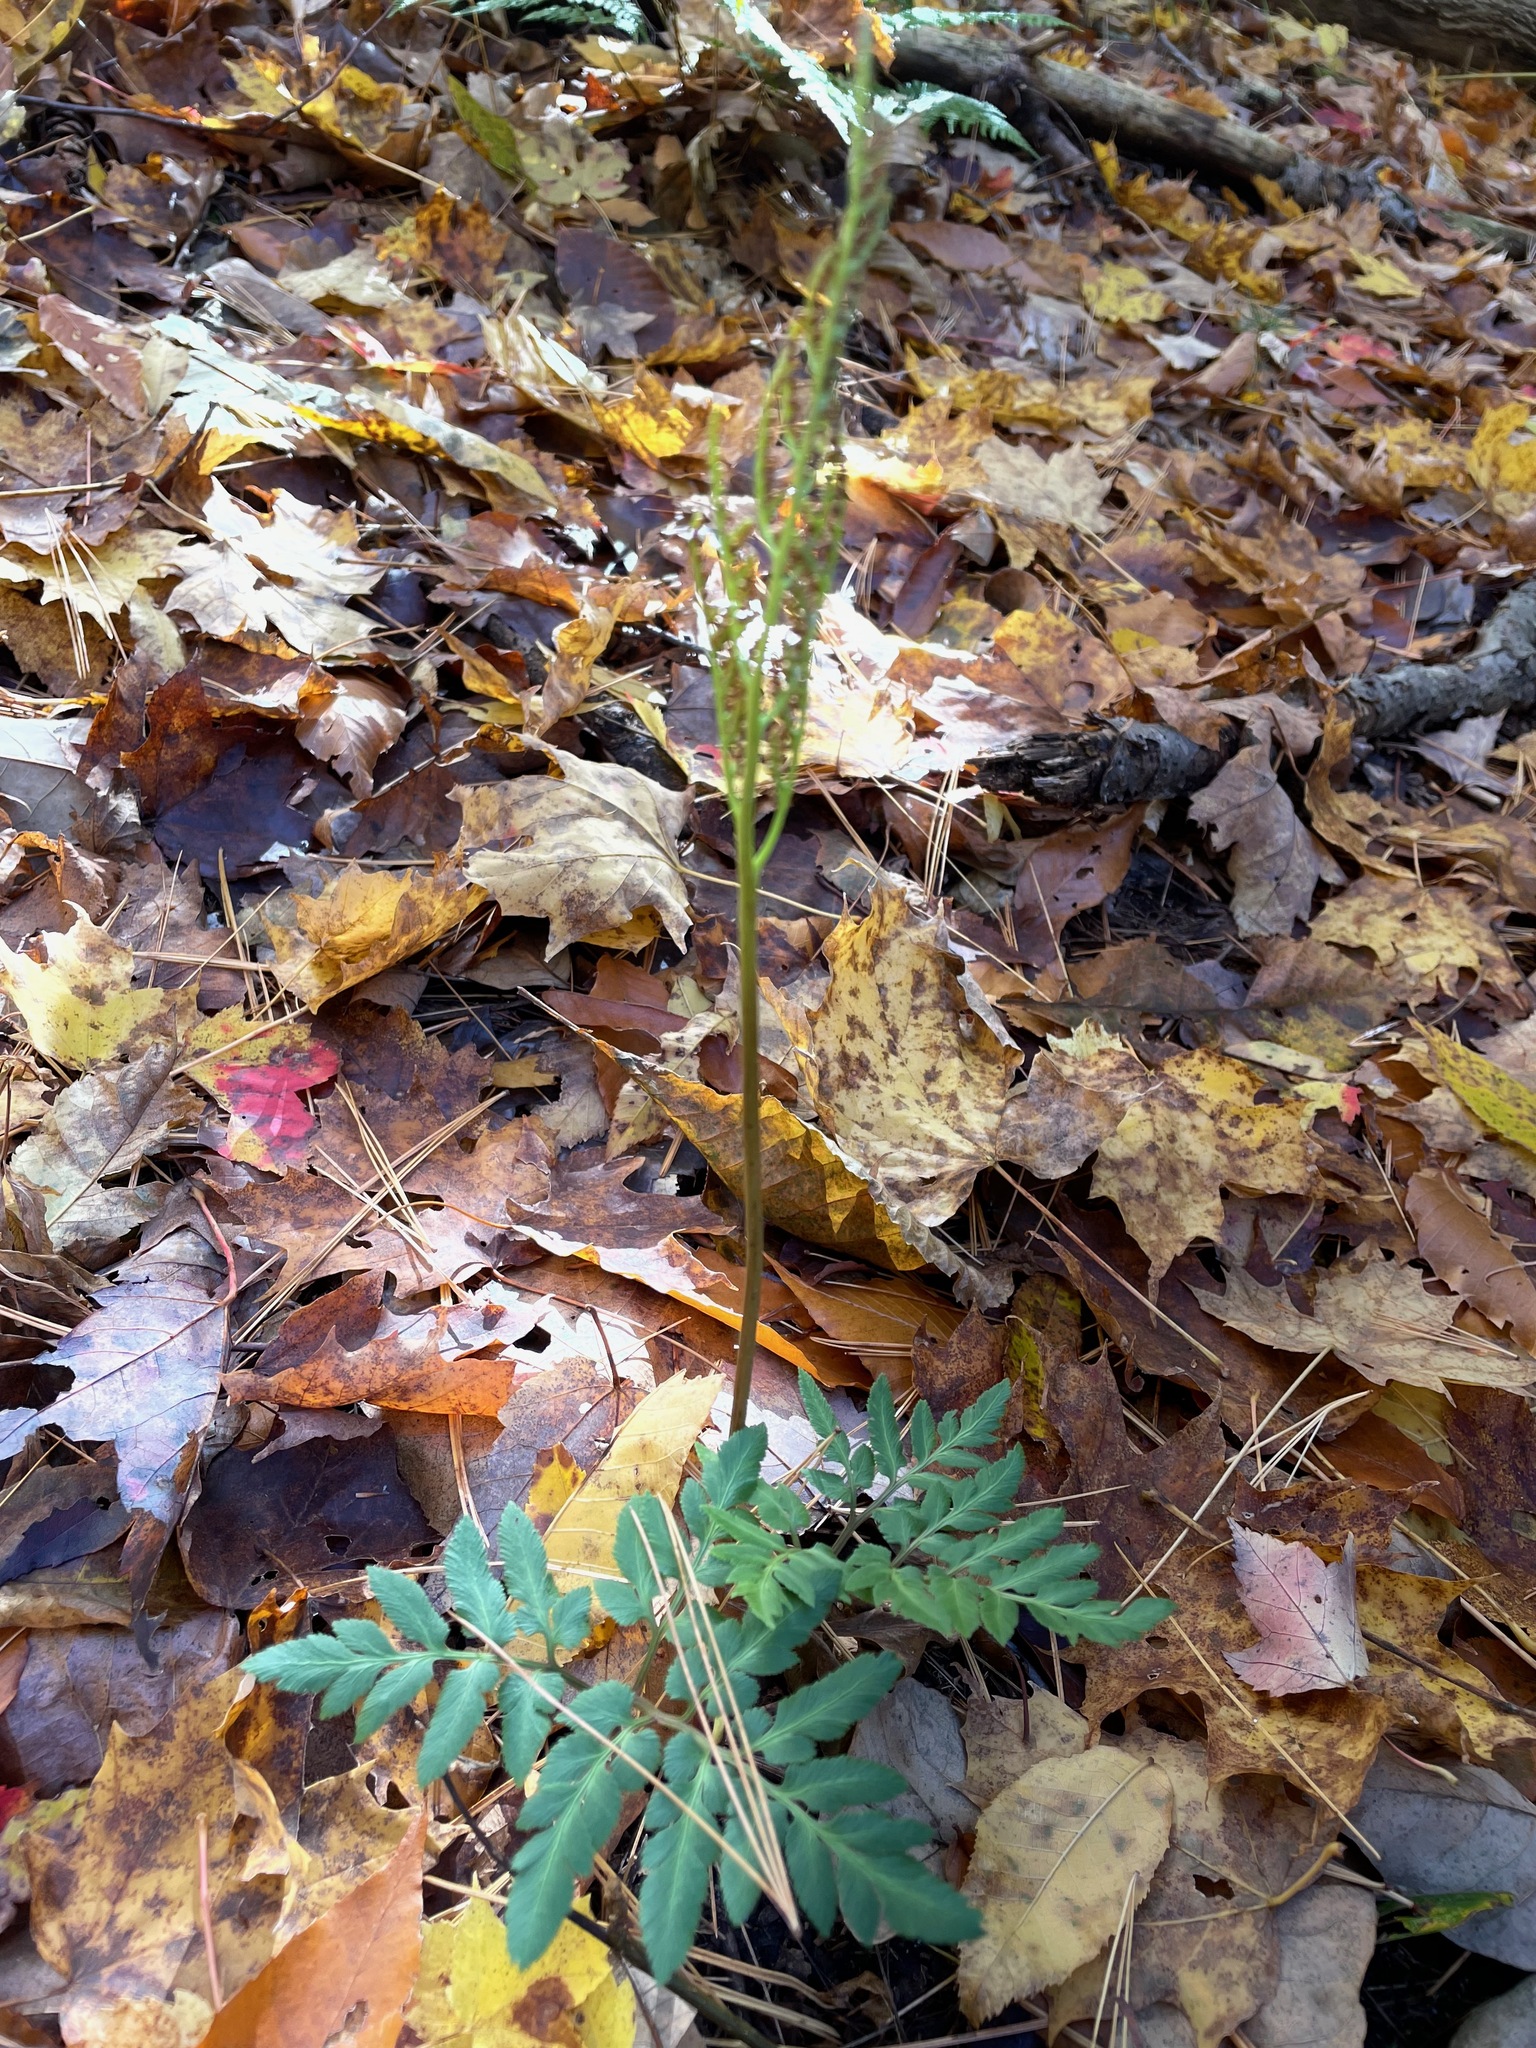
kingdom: Plantae
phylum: Tracheophyta
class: Polypodiopsida
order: Ophioglossales
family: Ophioglossaceae
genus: Sceptridium
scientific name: Sceptridium dissectum
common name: Cut-leaved grapefern
